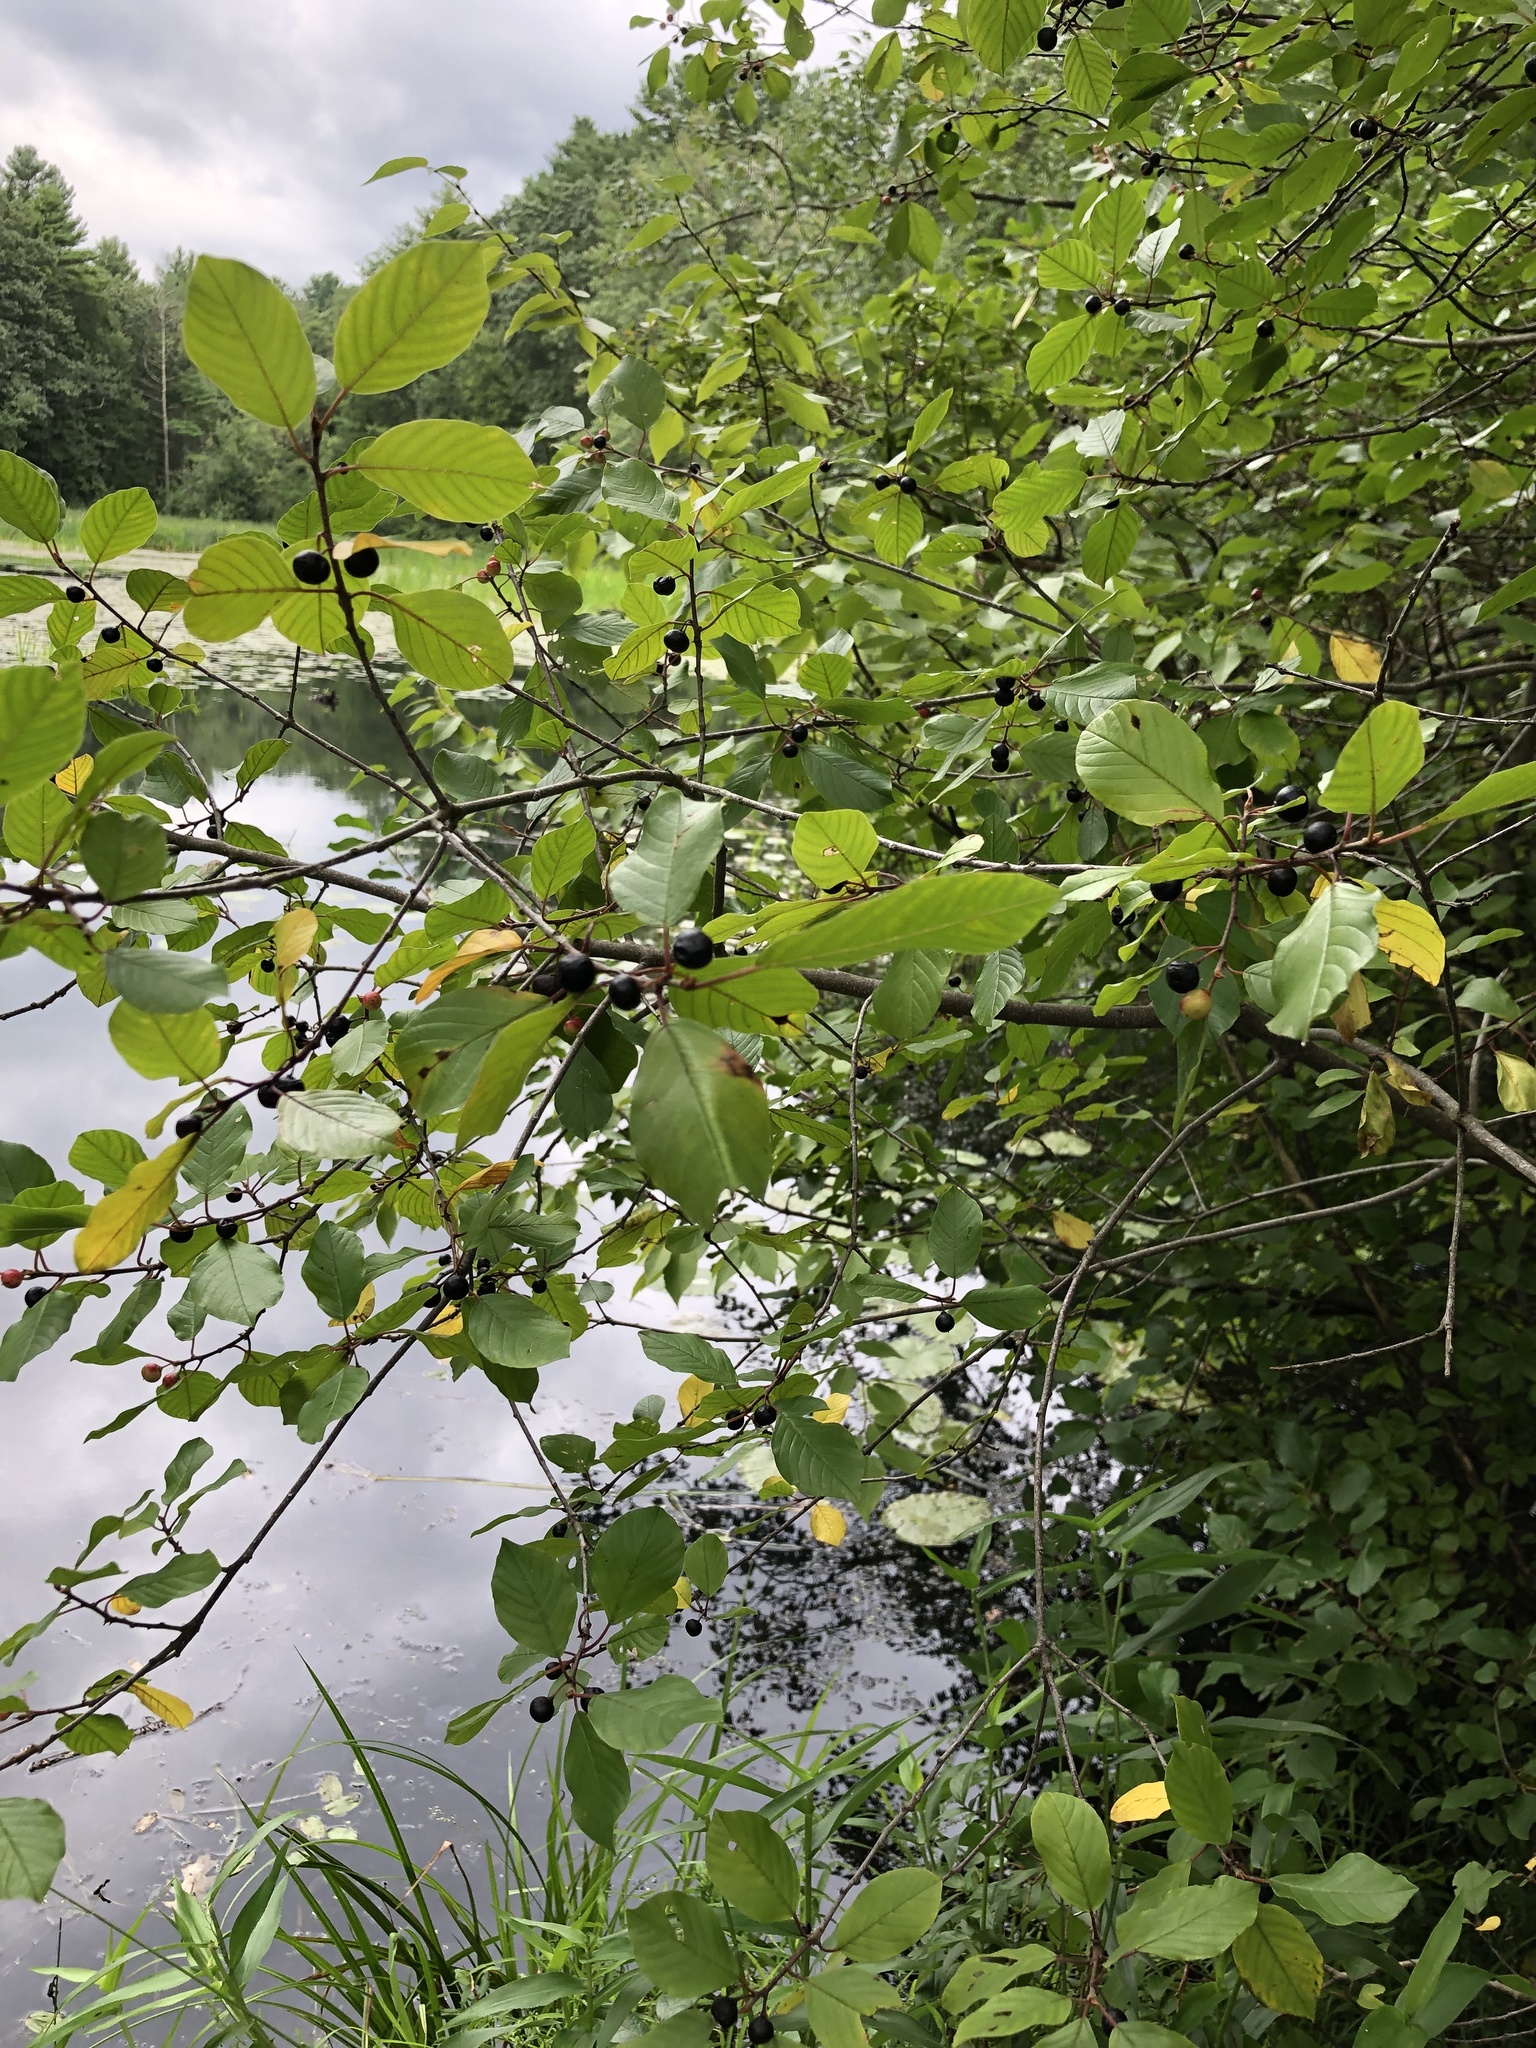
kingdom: Plantae
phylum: Tracheophyta
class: Magnoliopsida
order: Rosales
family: Rhamnaceae
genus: Frangula
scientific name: Frangula alnus
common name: Alder buckthorn
